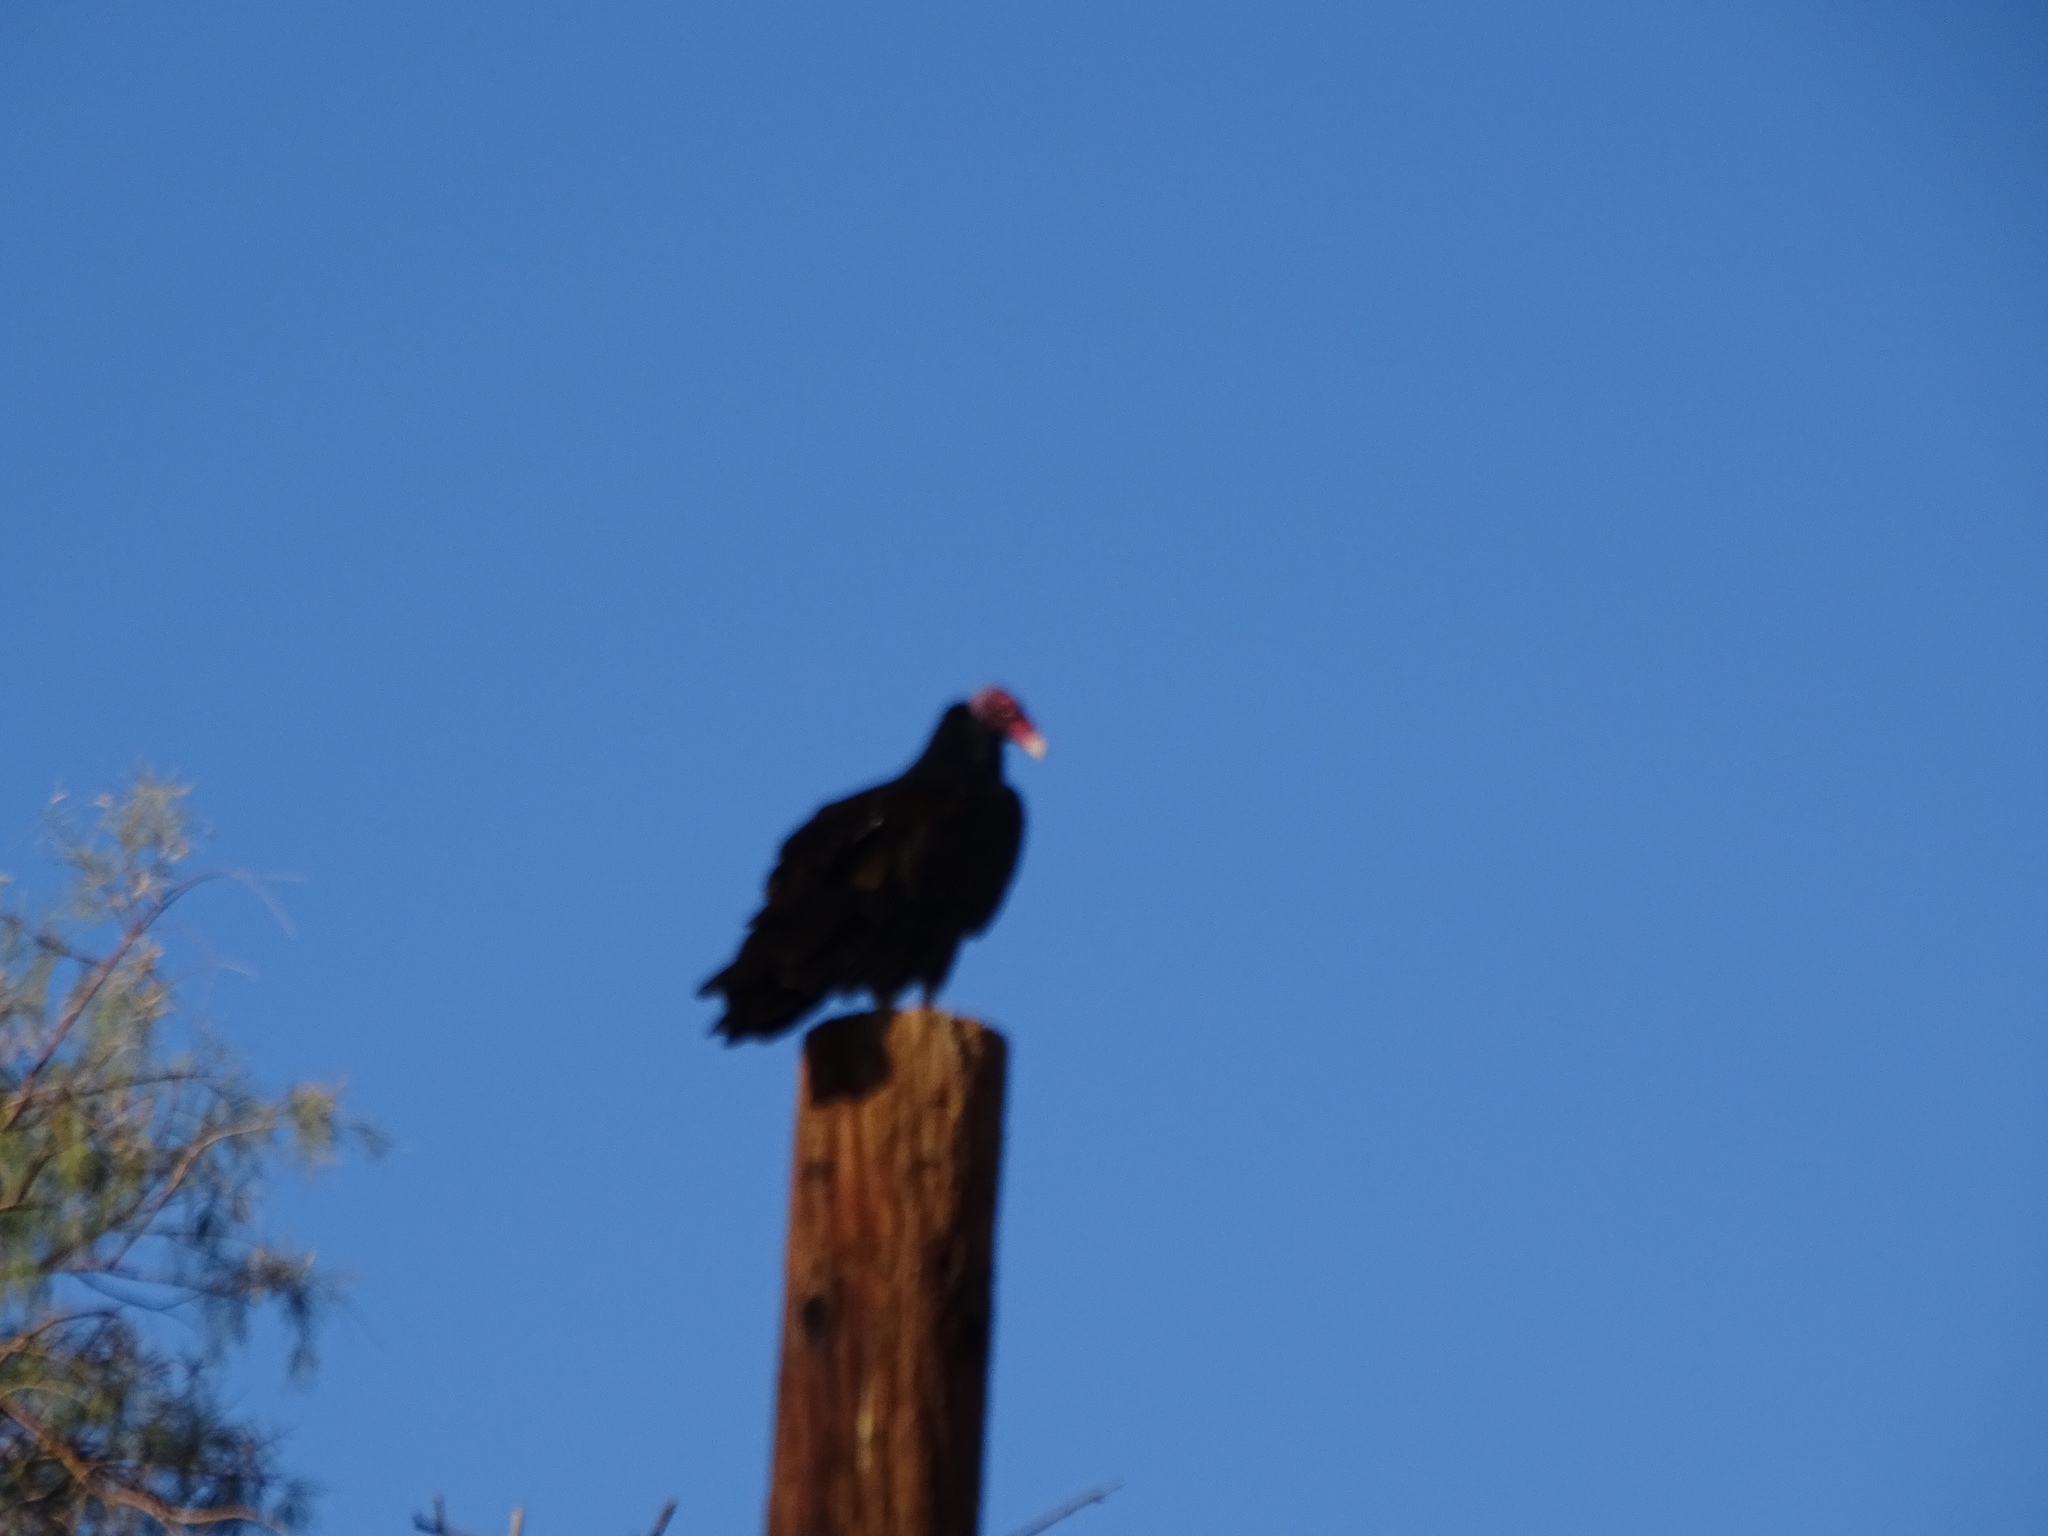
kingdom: Animalia
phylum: Chordata
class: Aves
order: Accipitriformes
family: Cathartidae
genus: Cathartes
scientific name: Cathartes aura
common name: Turkey vulture
